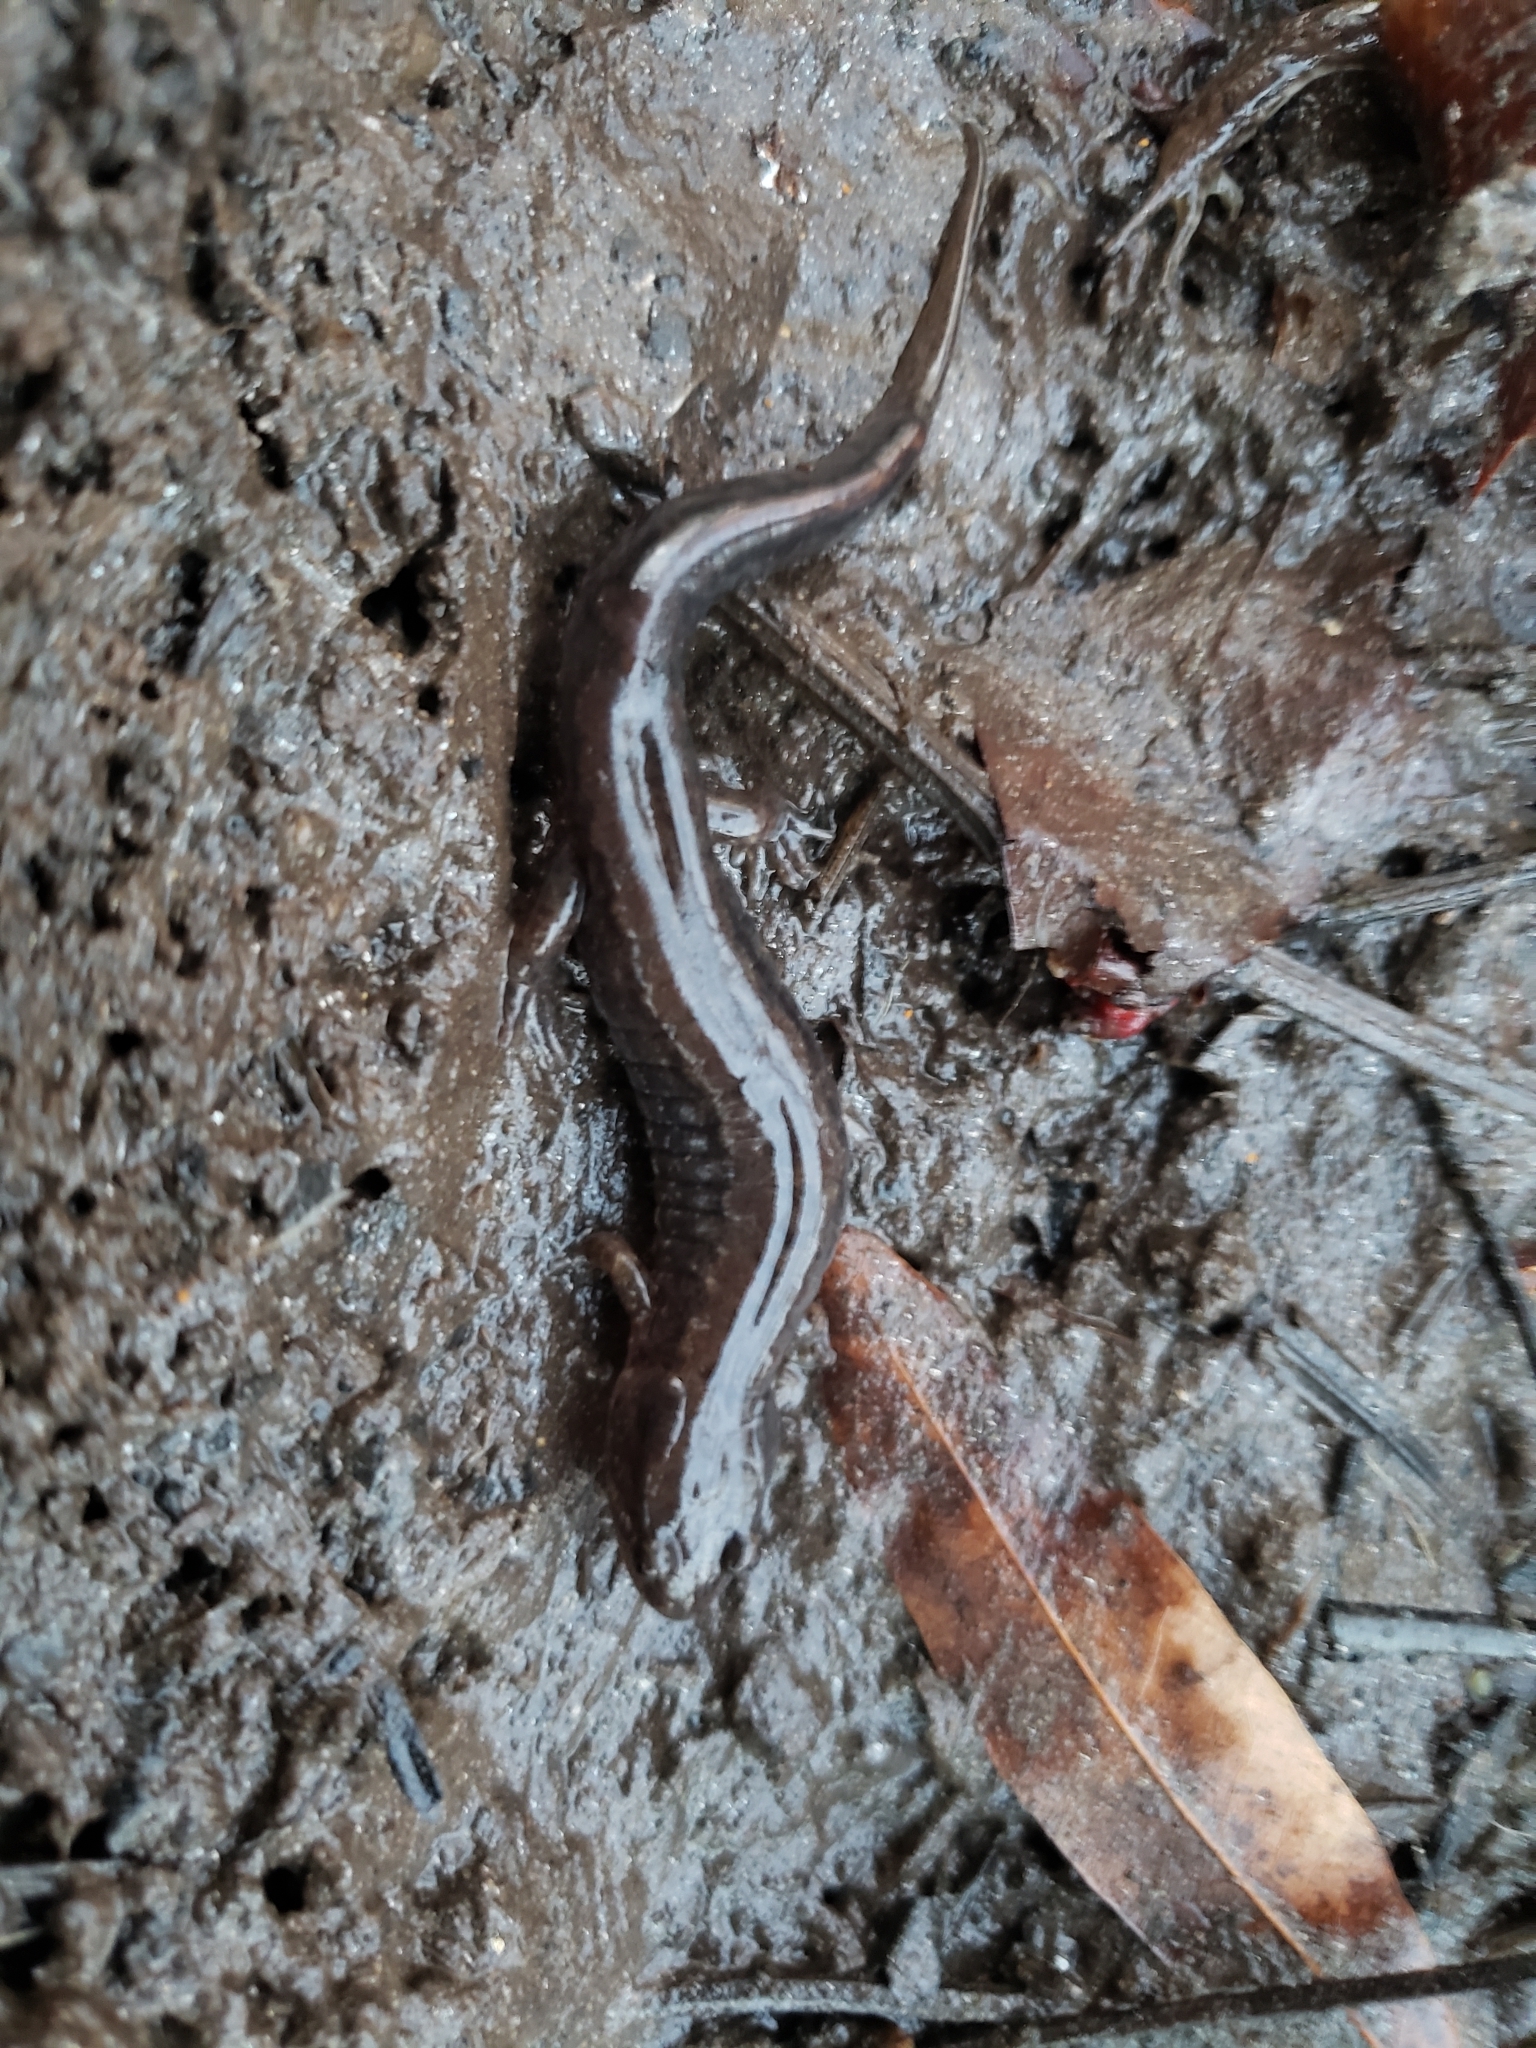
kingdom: Animalia
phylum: Chordata
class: Amphibia
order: Caudata
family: Plethodontidae
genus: Desmognathus
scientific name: Desmognathus fuscus
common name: Northern dusky salamander
